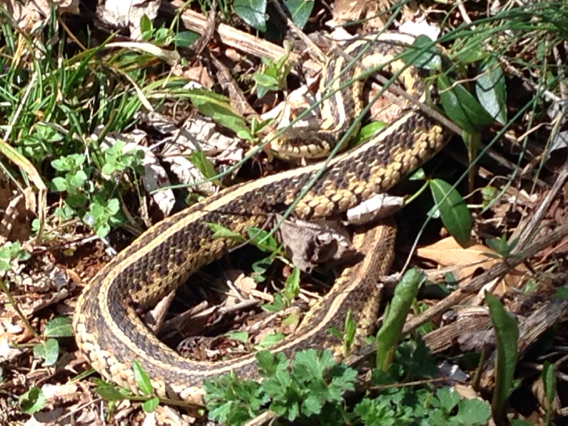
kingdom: Animalia
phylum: Chordata
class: Squamata
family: Colubridae
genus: Thamnophis
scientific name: Thamnophis sirtalis
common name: Common garter snake
